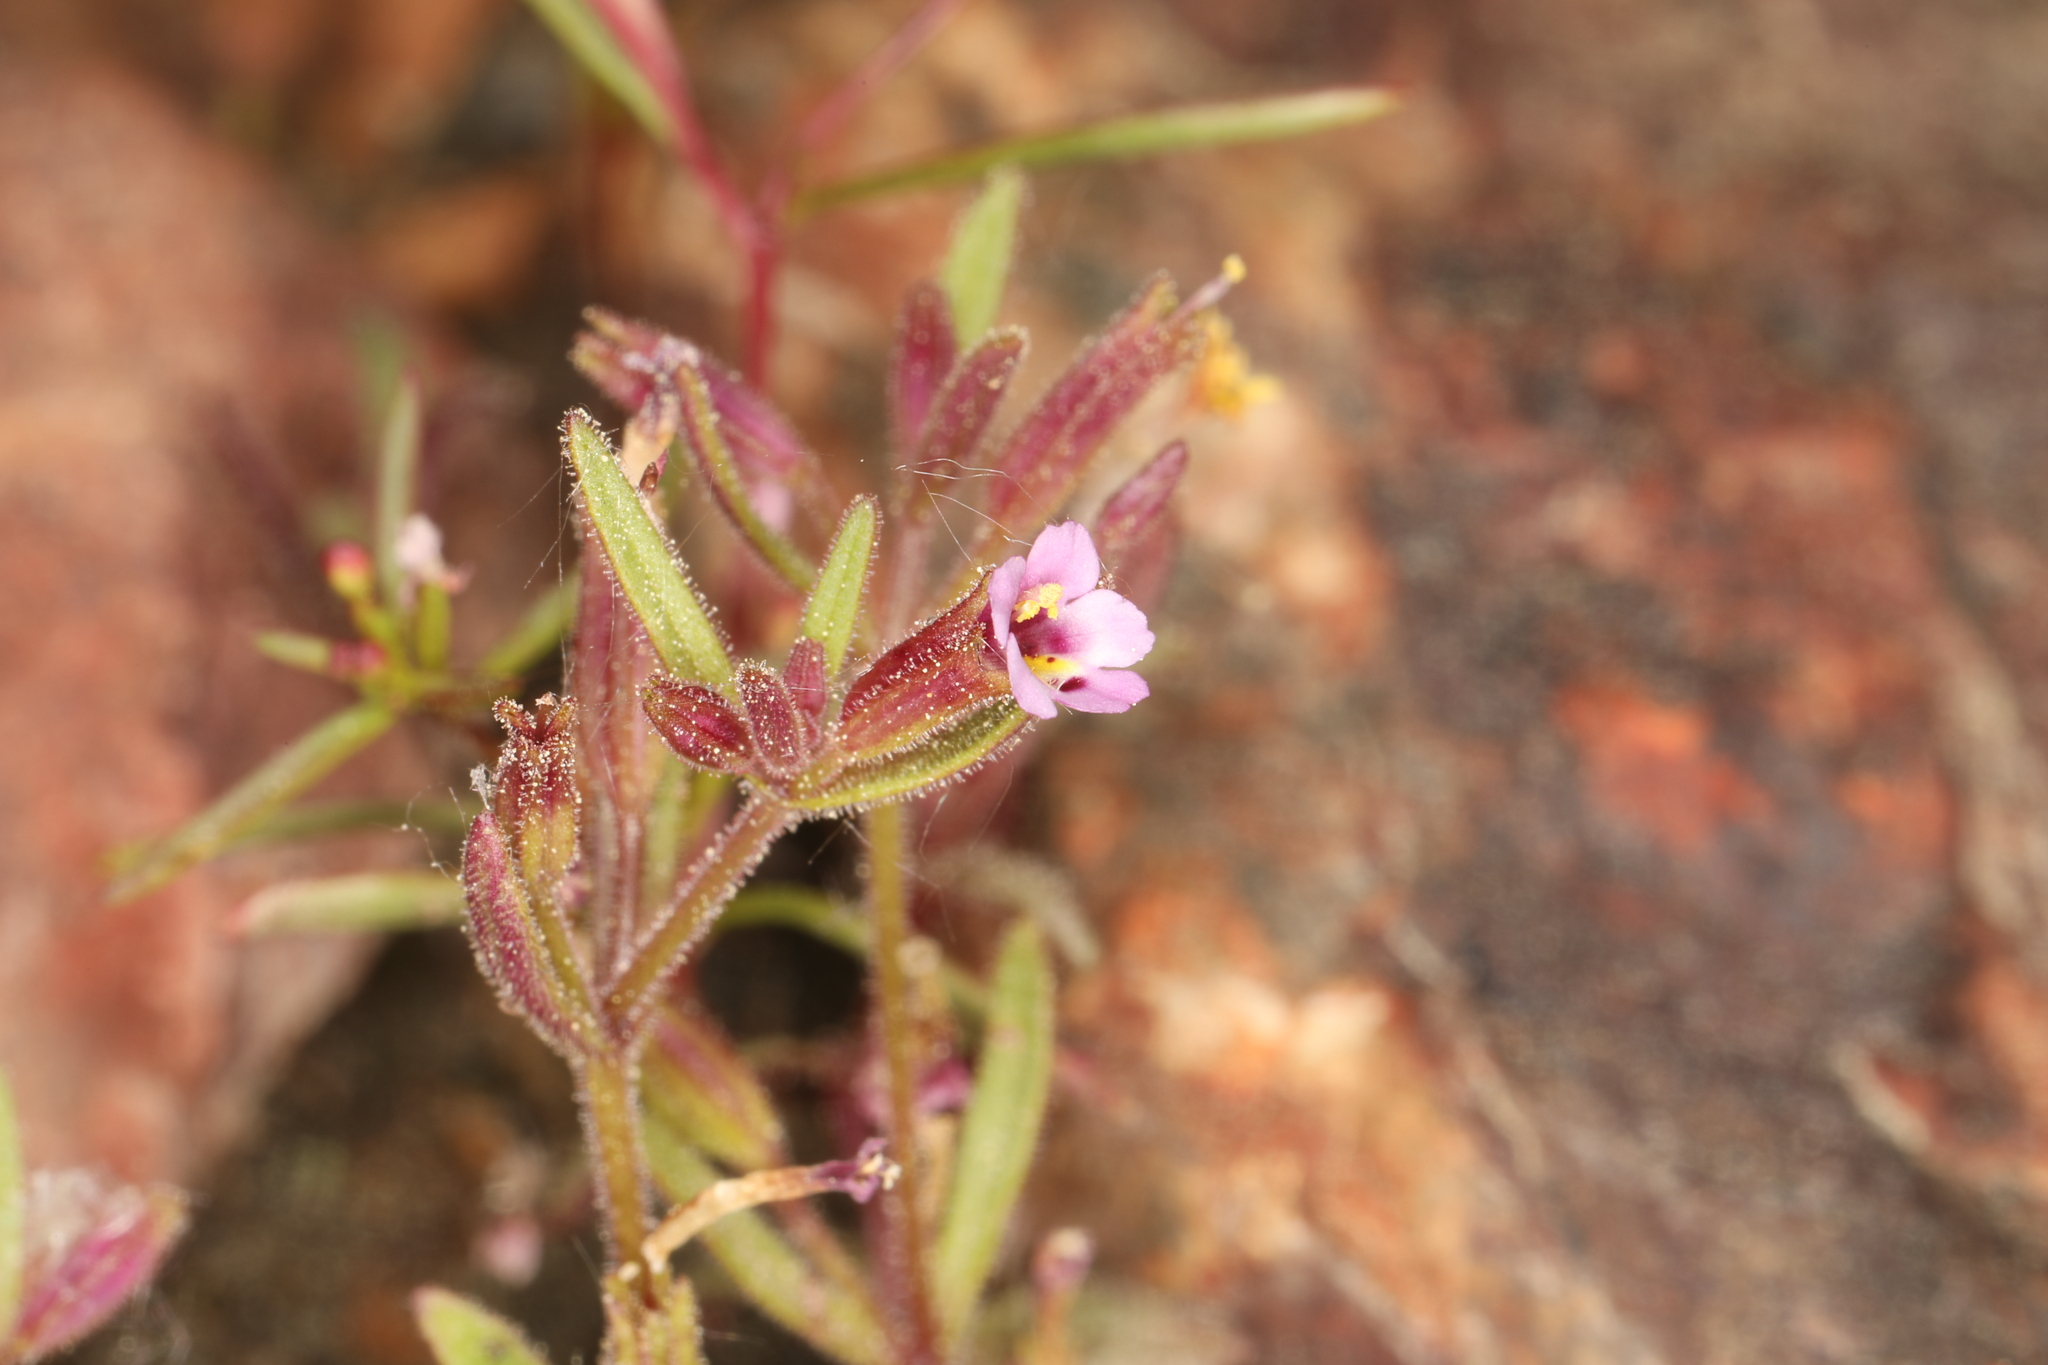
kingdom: Plantae
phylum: Tracheophyta
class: Magnoliopsida
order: Lamiales
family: Phrymaceae
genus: Erythranthe
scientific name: Erythranthe breweri
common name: Brewer's monkeyflower
